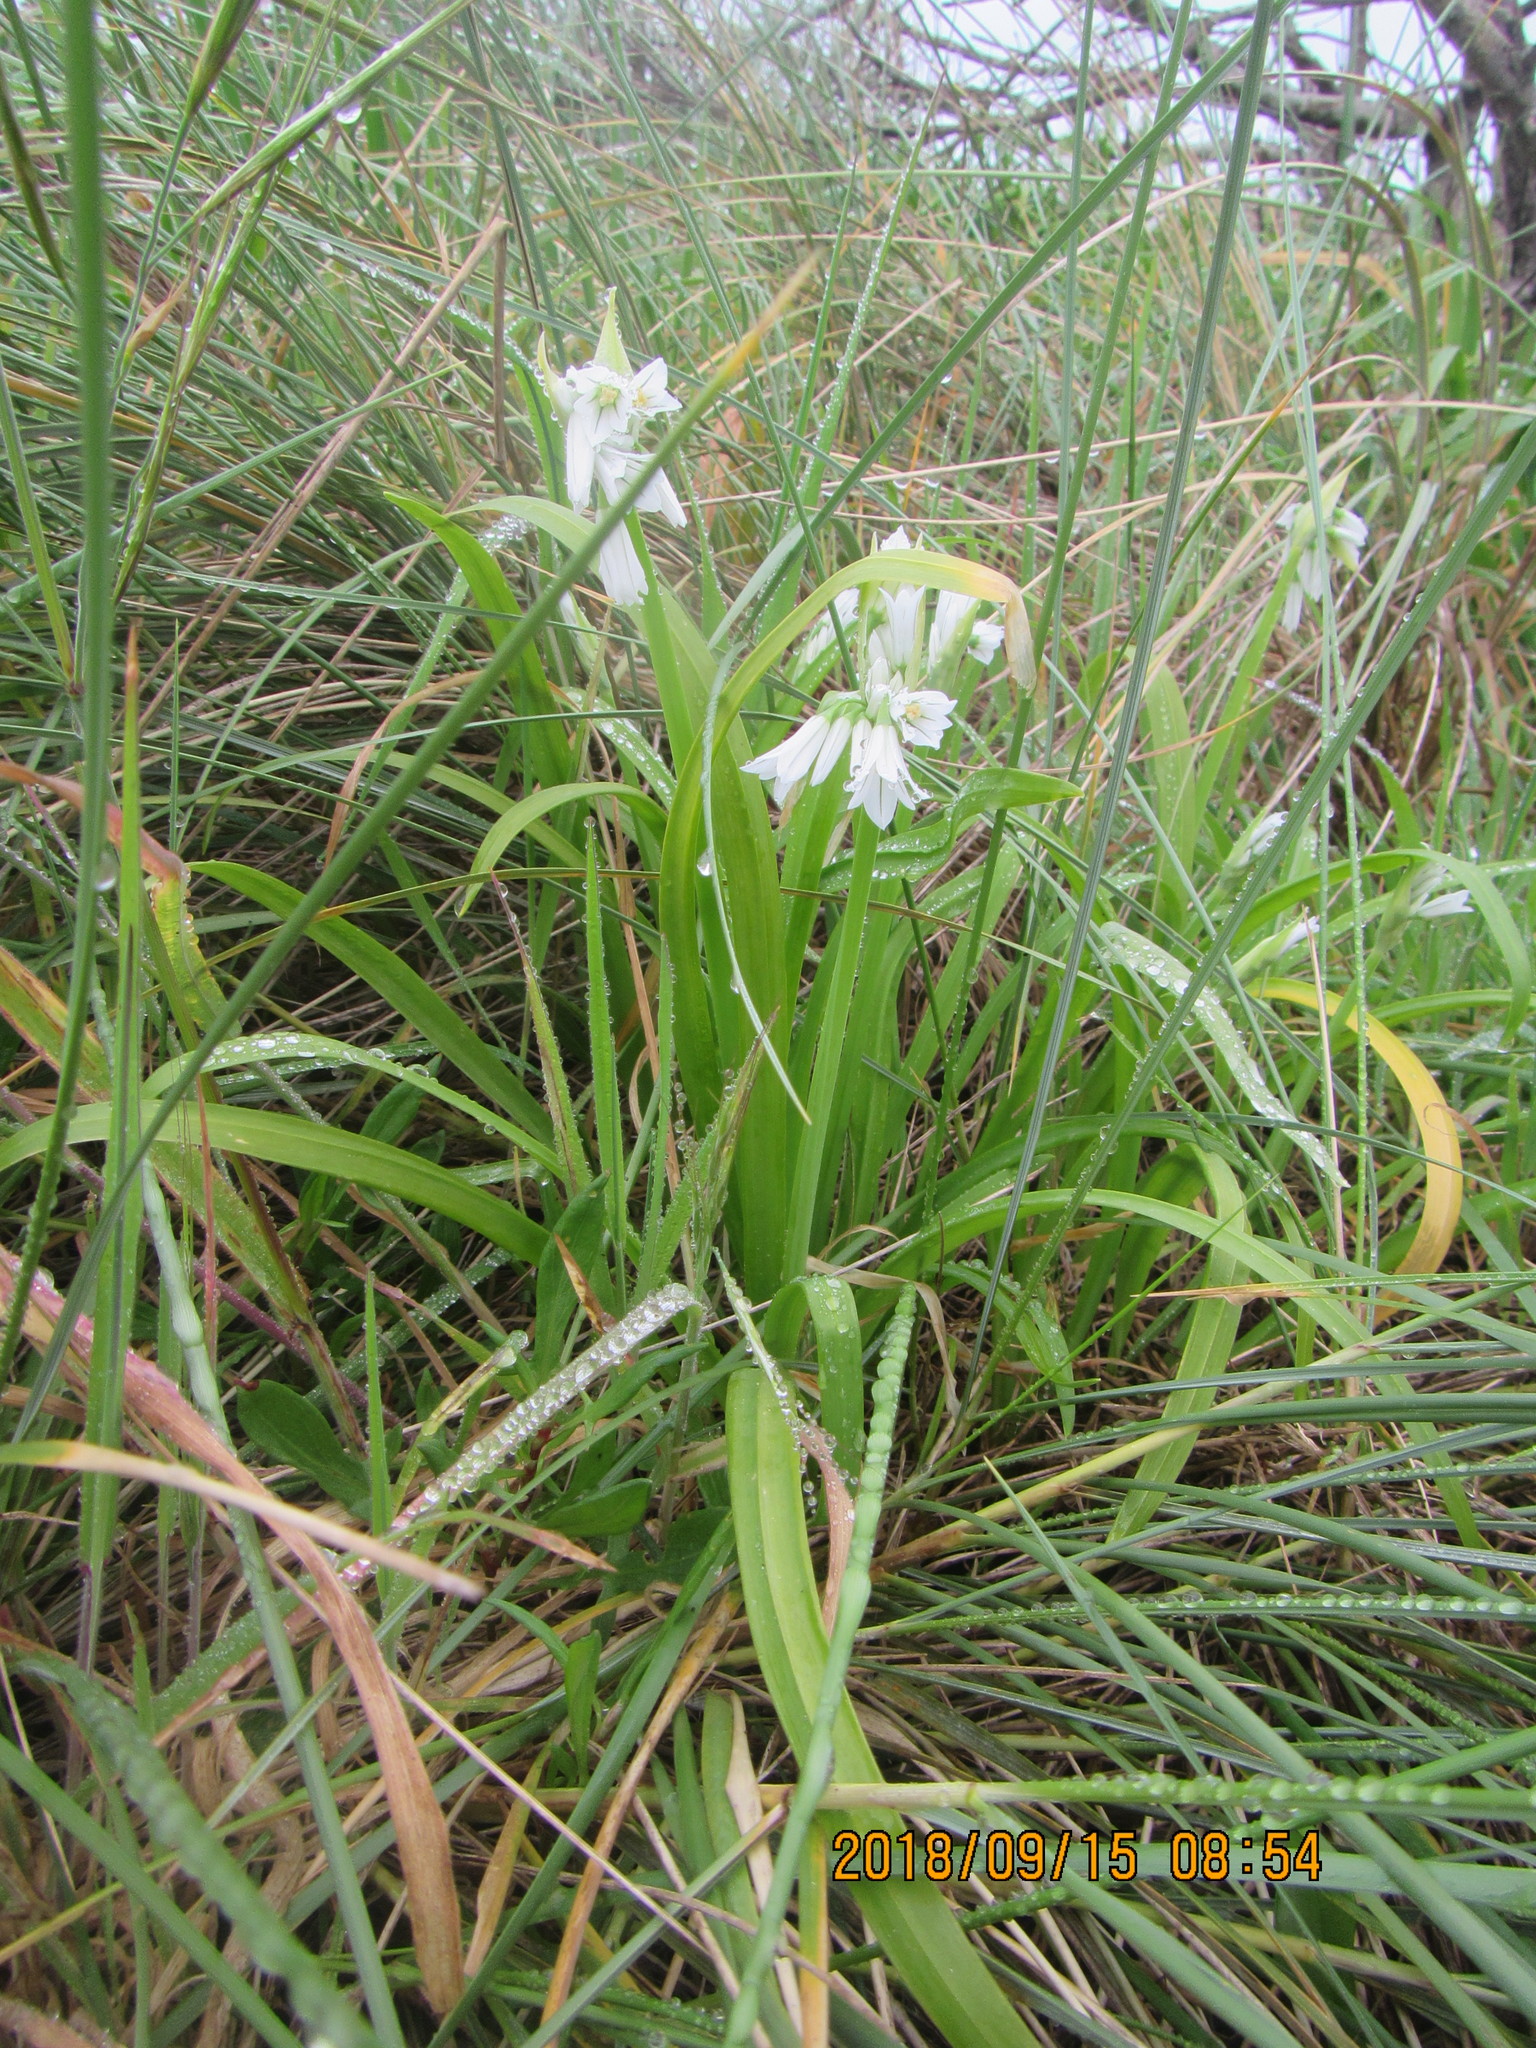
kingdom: Plantae
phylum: Tracheophyta
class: Liliopsida
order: Asparagales
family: Amaryllidaceae
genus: Allium
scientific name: Allium triquetrum
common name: Three-cornered garlic
